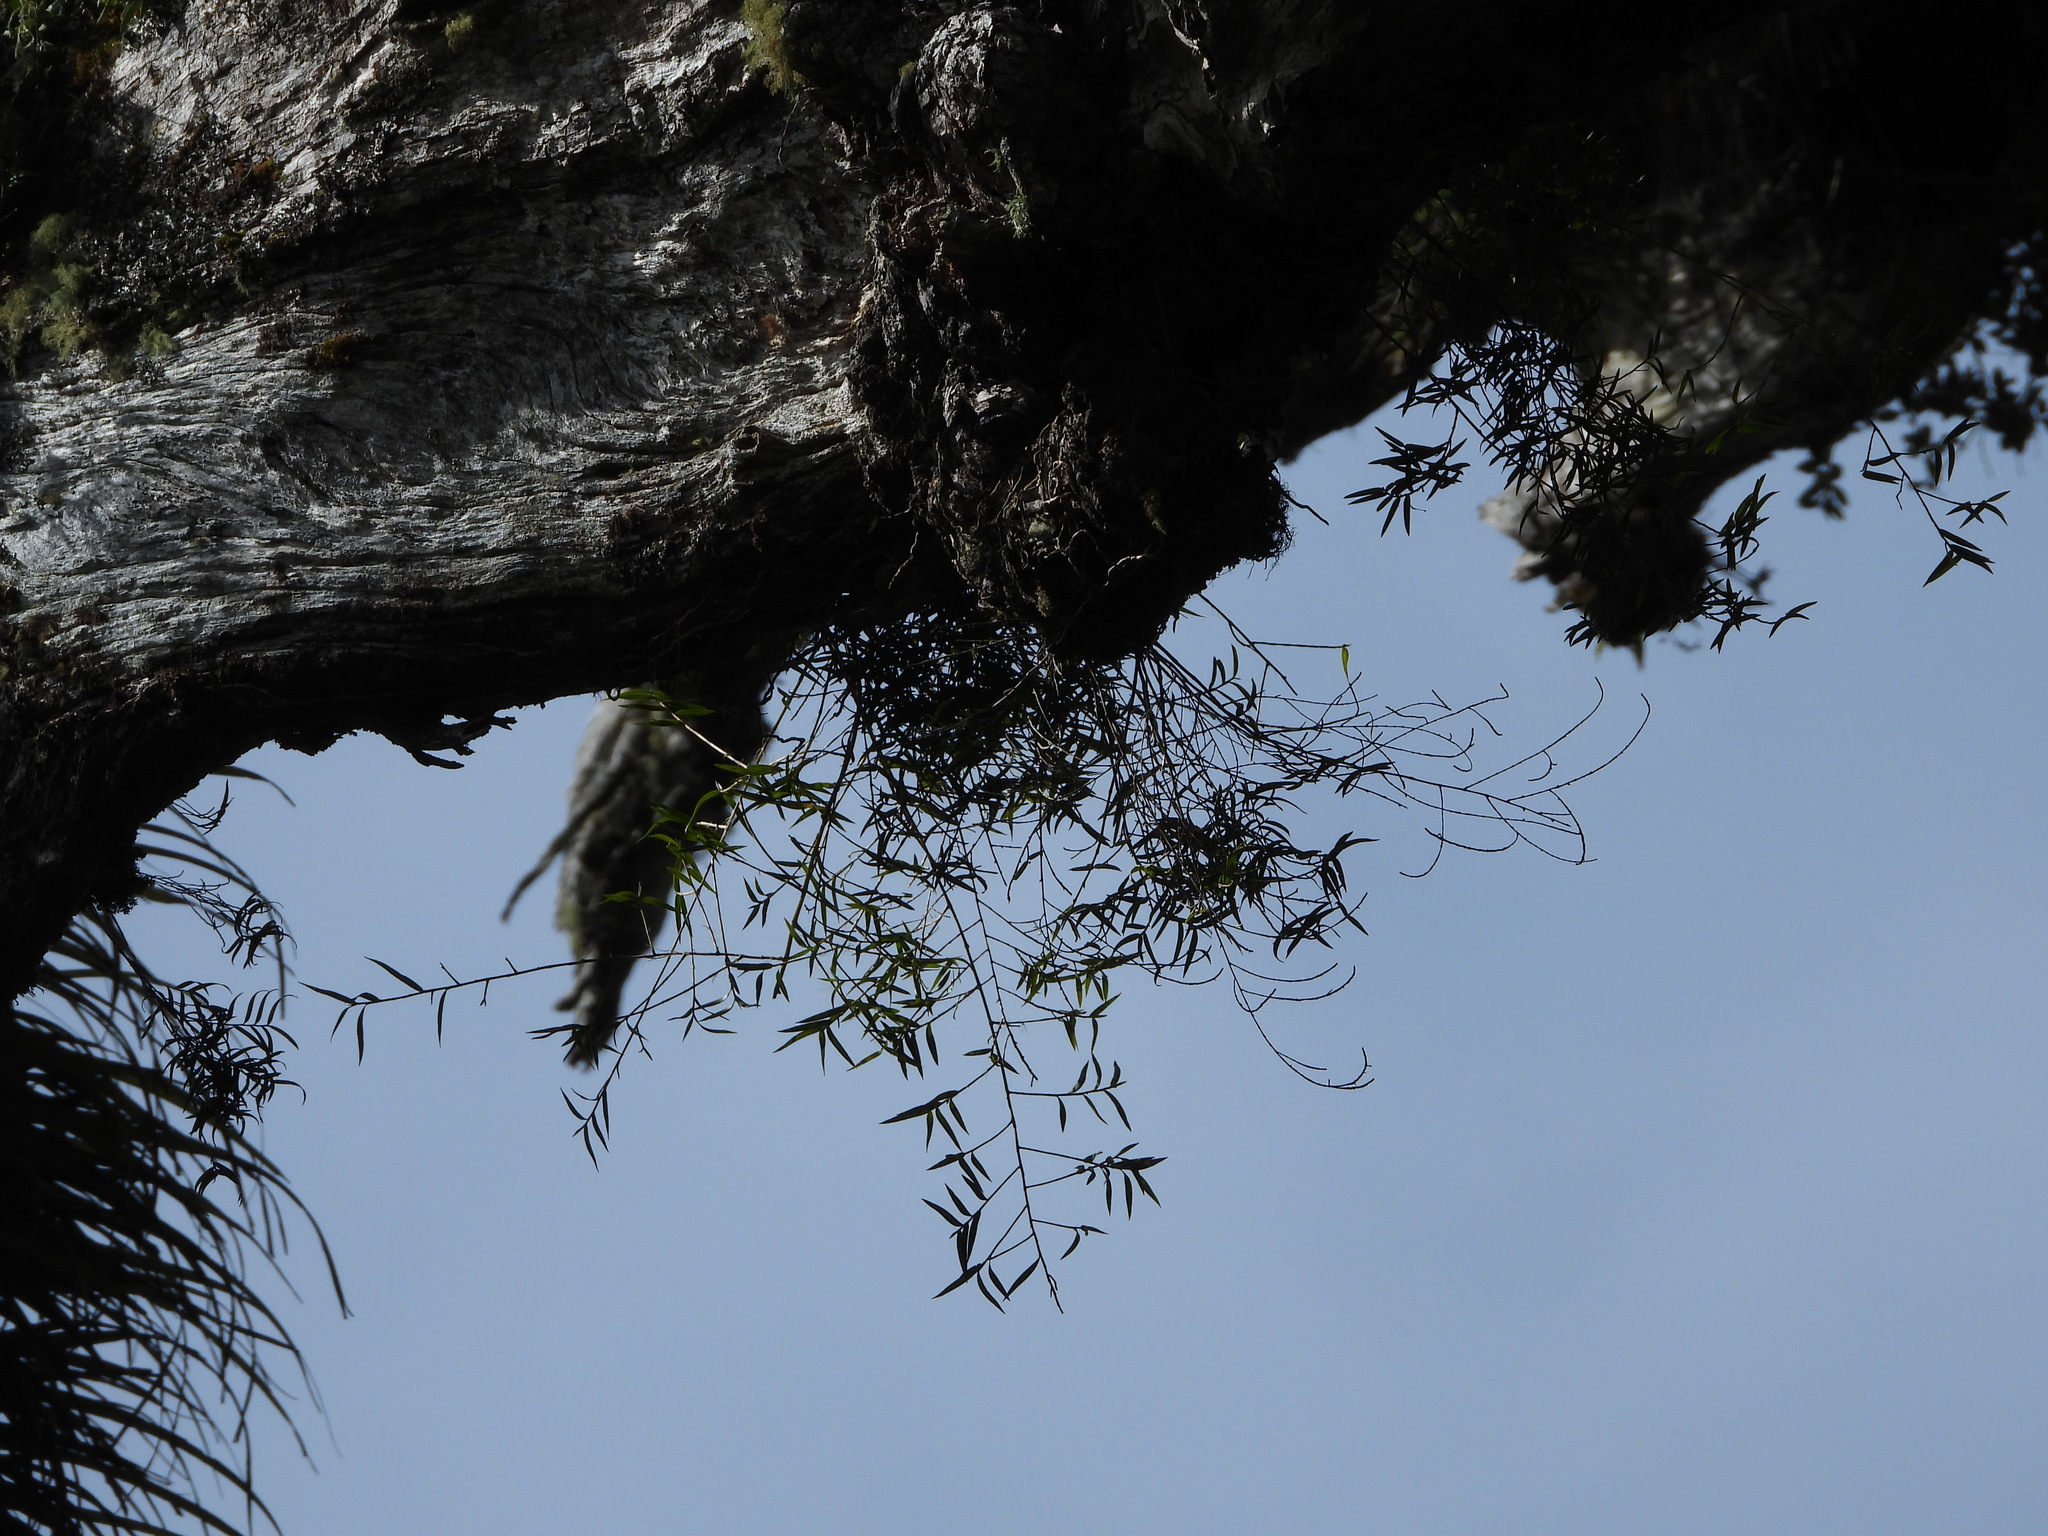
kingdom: Plantae
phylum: Tracheophyta
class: Liliopsida
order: Asparagales
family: Orchidaceae
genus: Dendrobium
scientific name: Dendrobium cunninghamii
